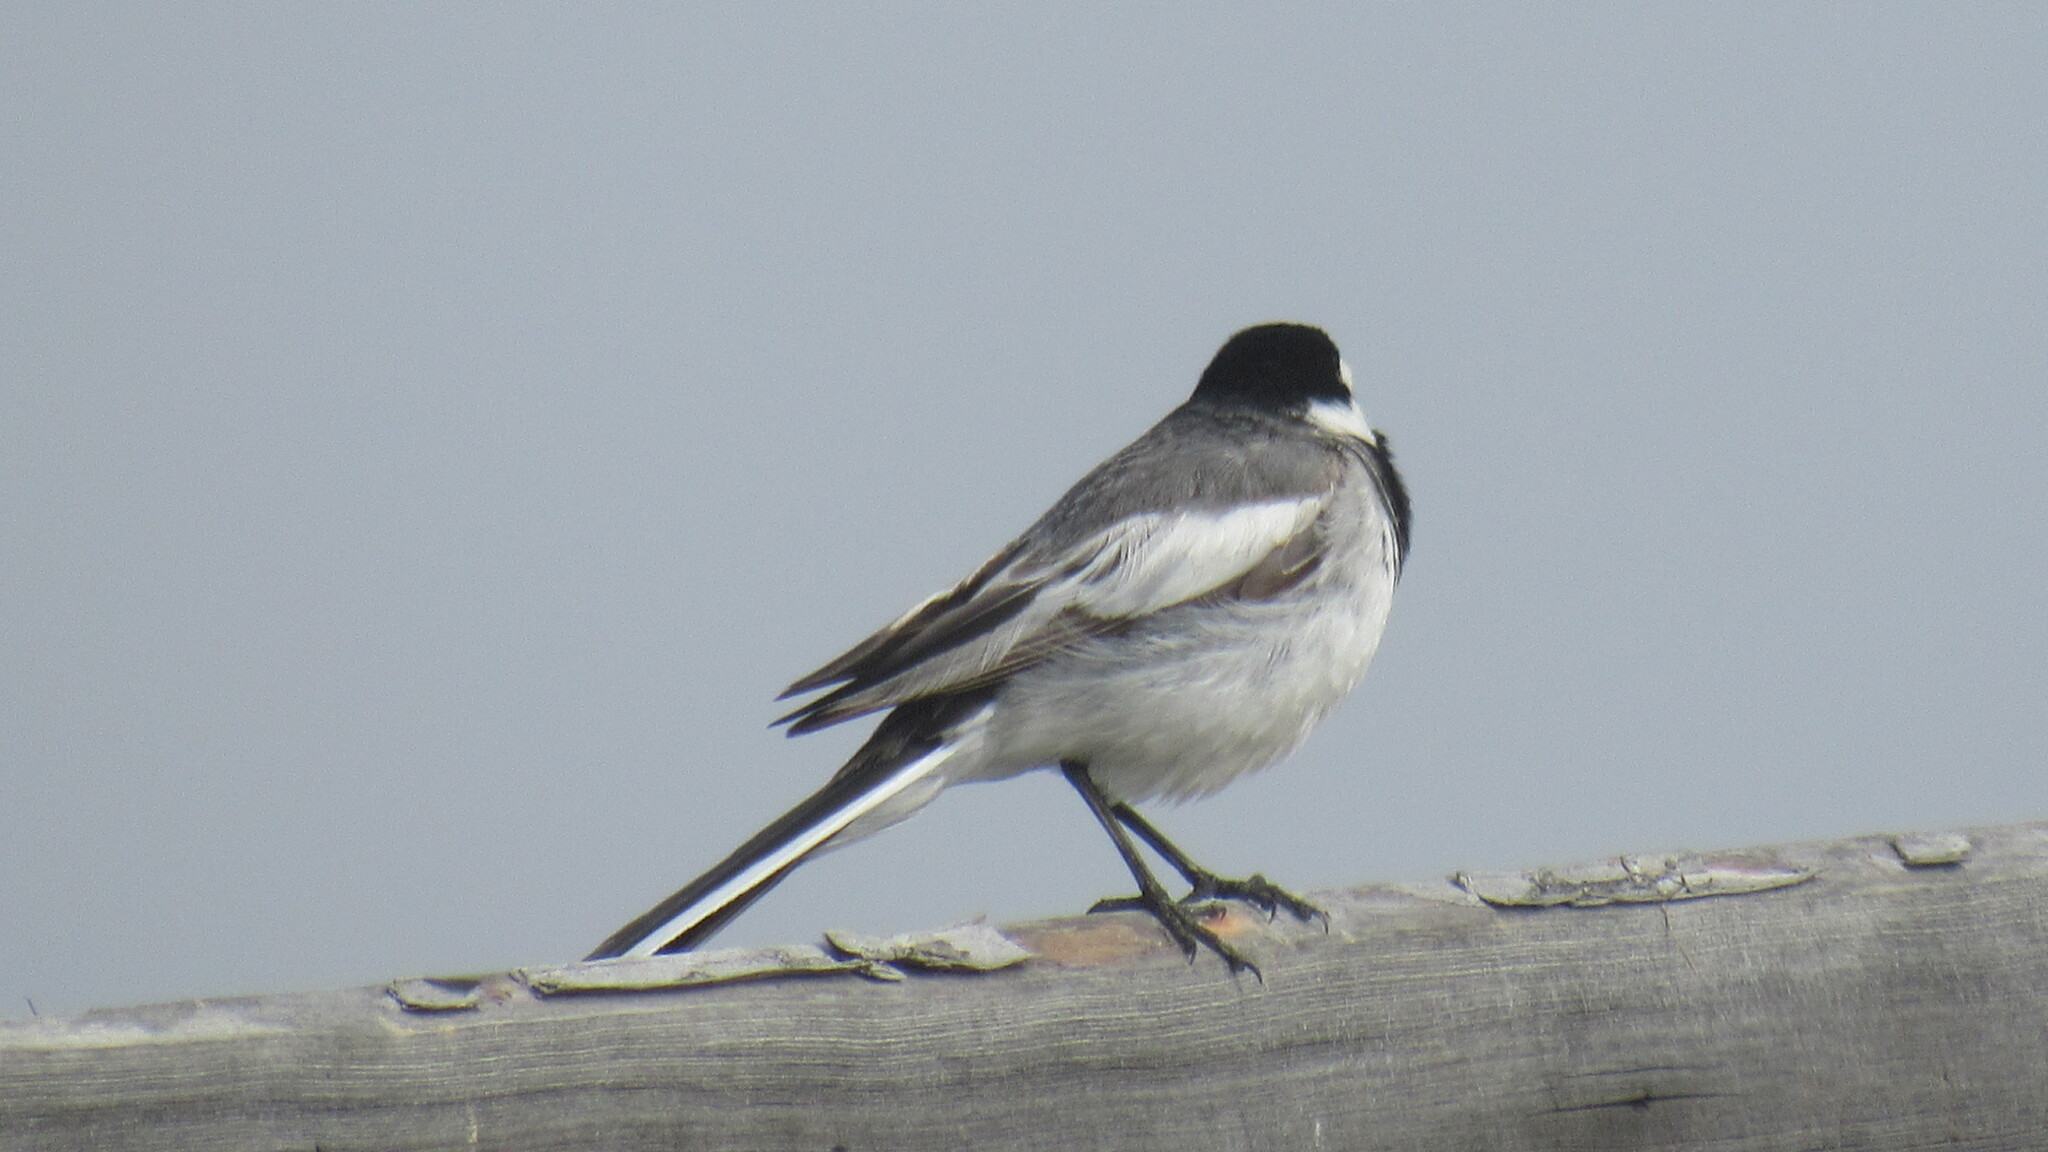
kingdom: Animalia
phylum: Chordata
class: Aves
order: Passeriformes
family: Motacillidae
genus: Motacilla
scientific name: Motacilla alba
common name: White wagtail
